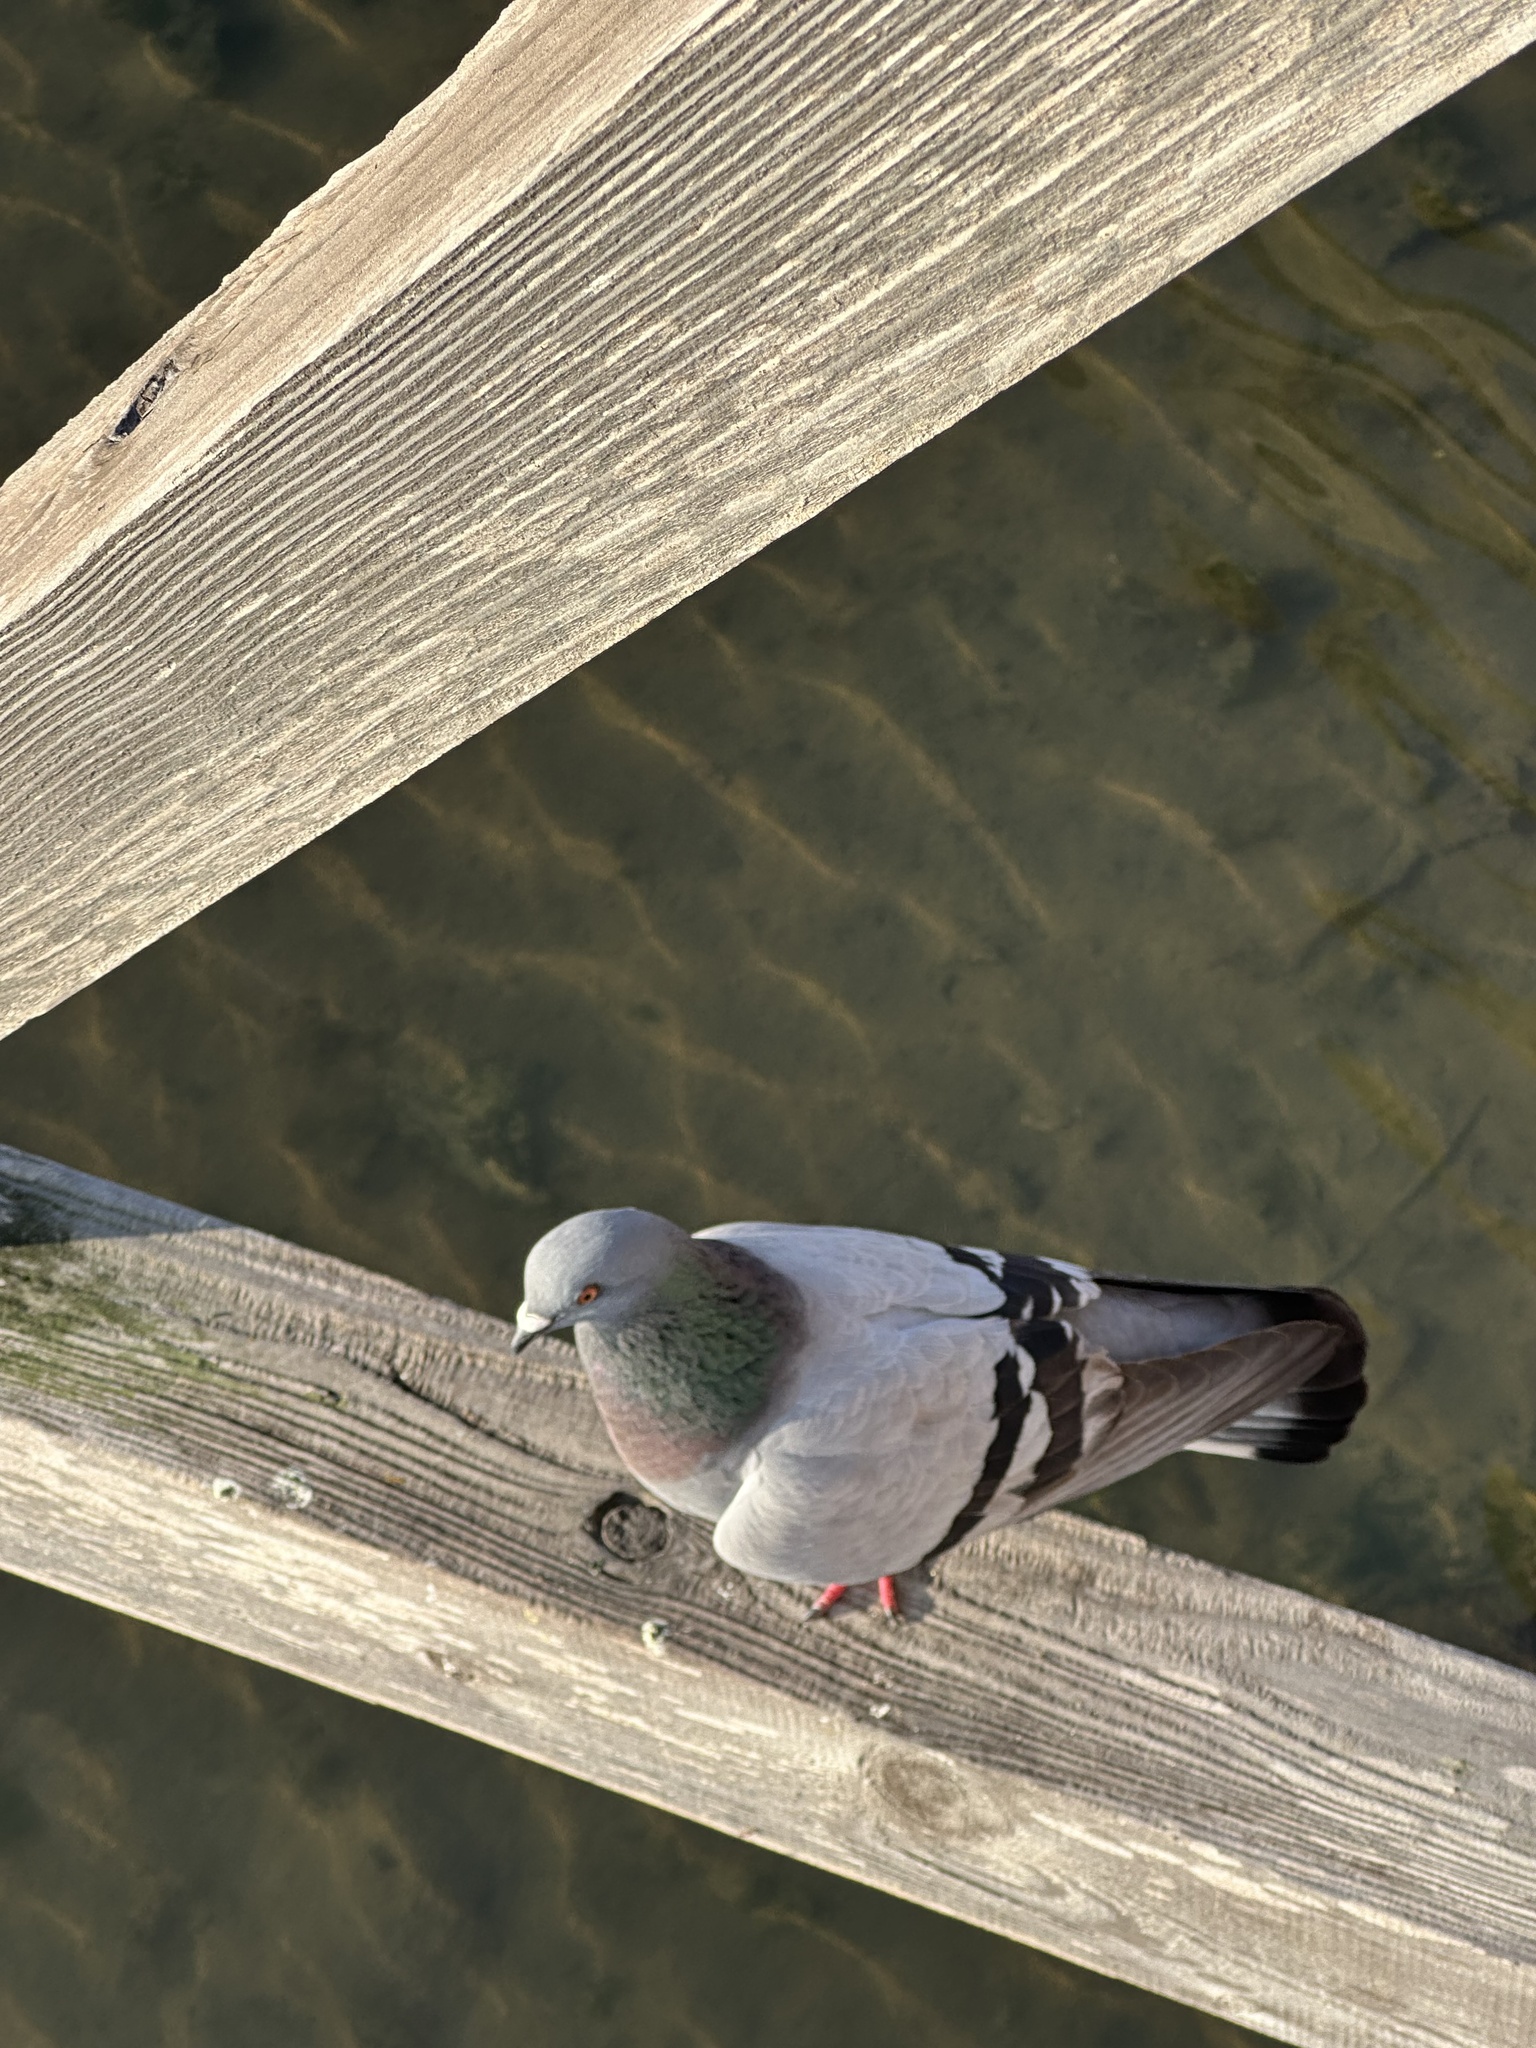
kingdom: Animalia
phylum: Chordata
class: Aves
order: Columbiformes
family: Columbidae
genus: Columba
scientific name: Columba livia
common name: Rock pigeon
